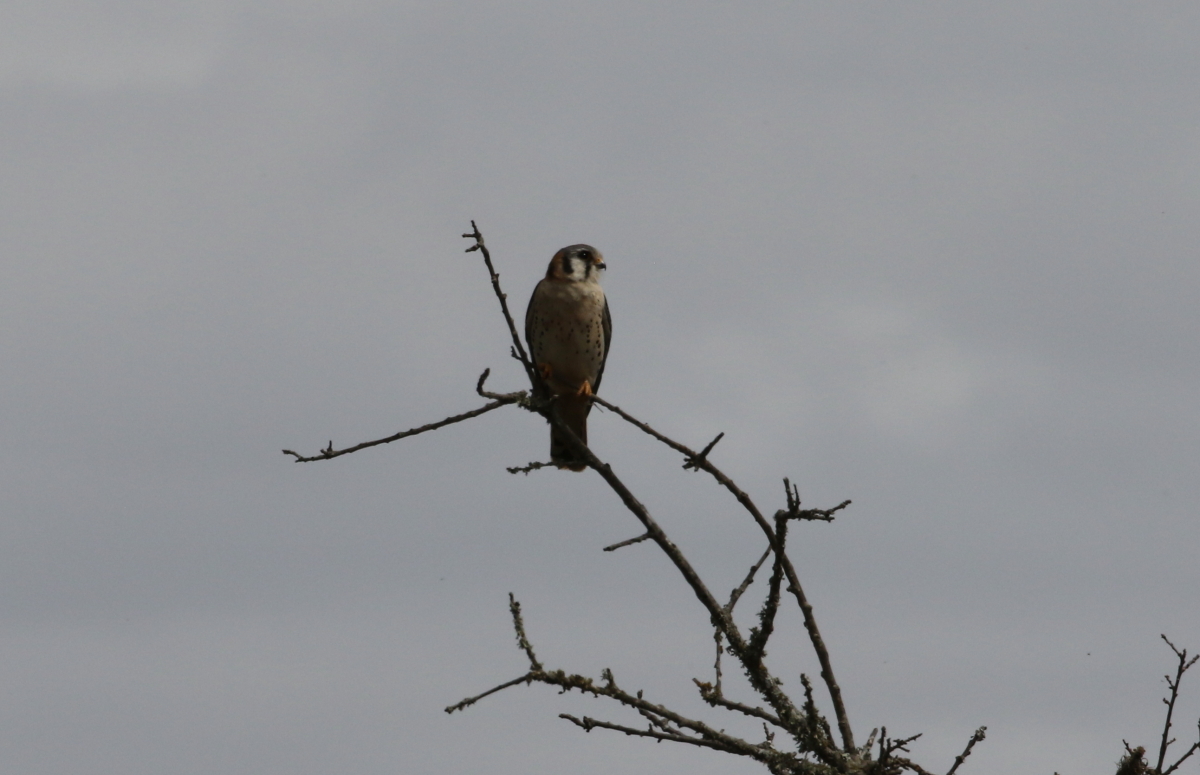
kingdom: Animalia
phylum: Chordata
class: Aves
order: Falconiformes
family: Falconidae
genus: Falco
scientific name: Falco sparverius
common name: American kestrel
